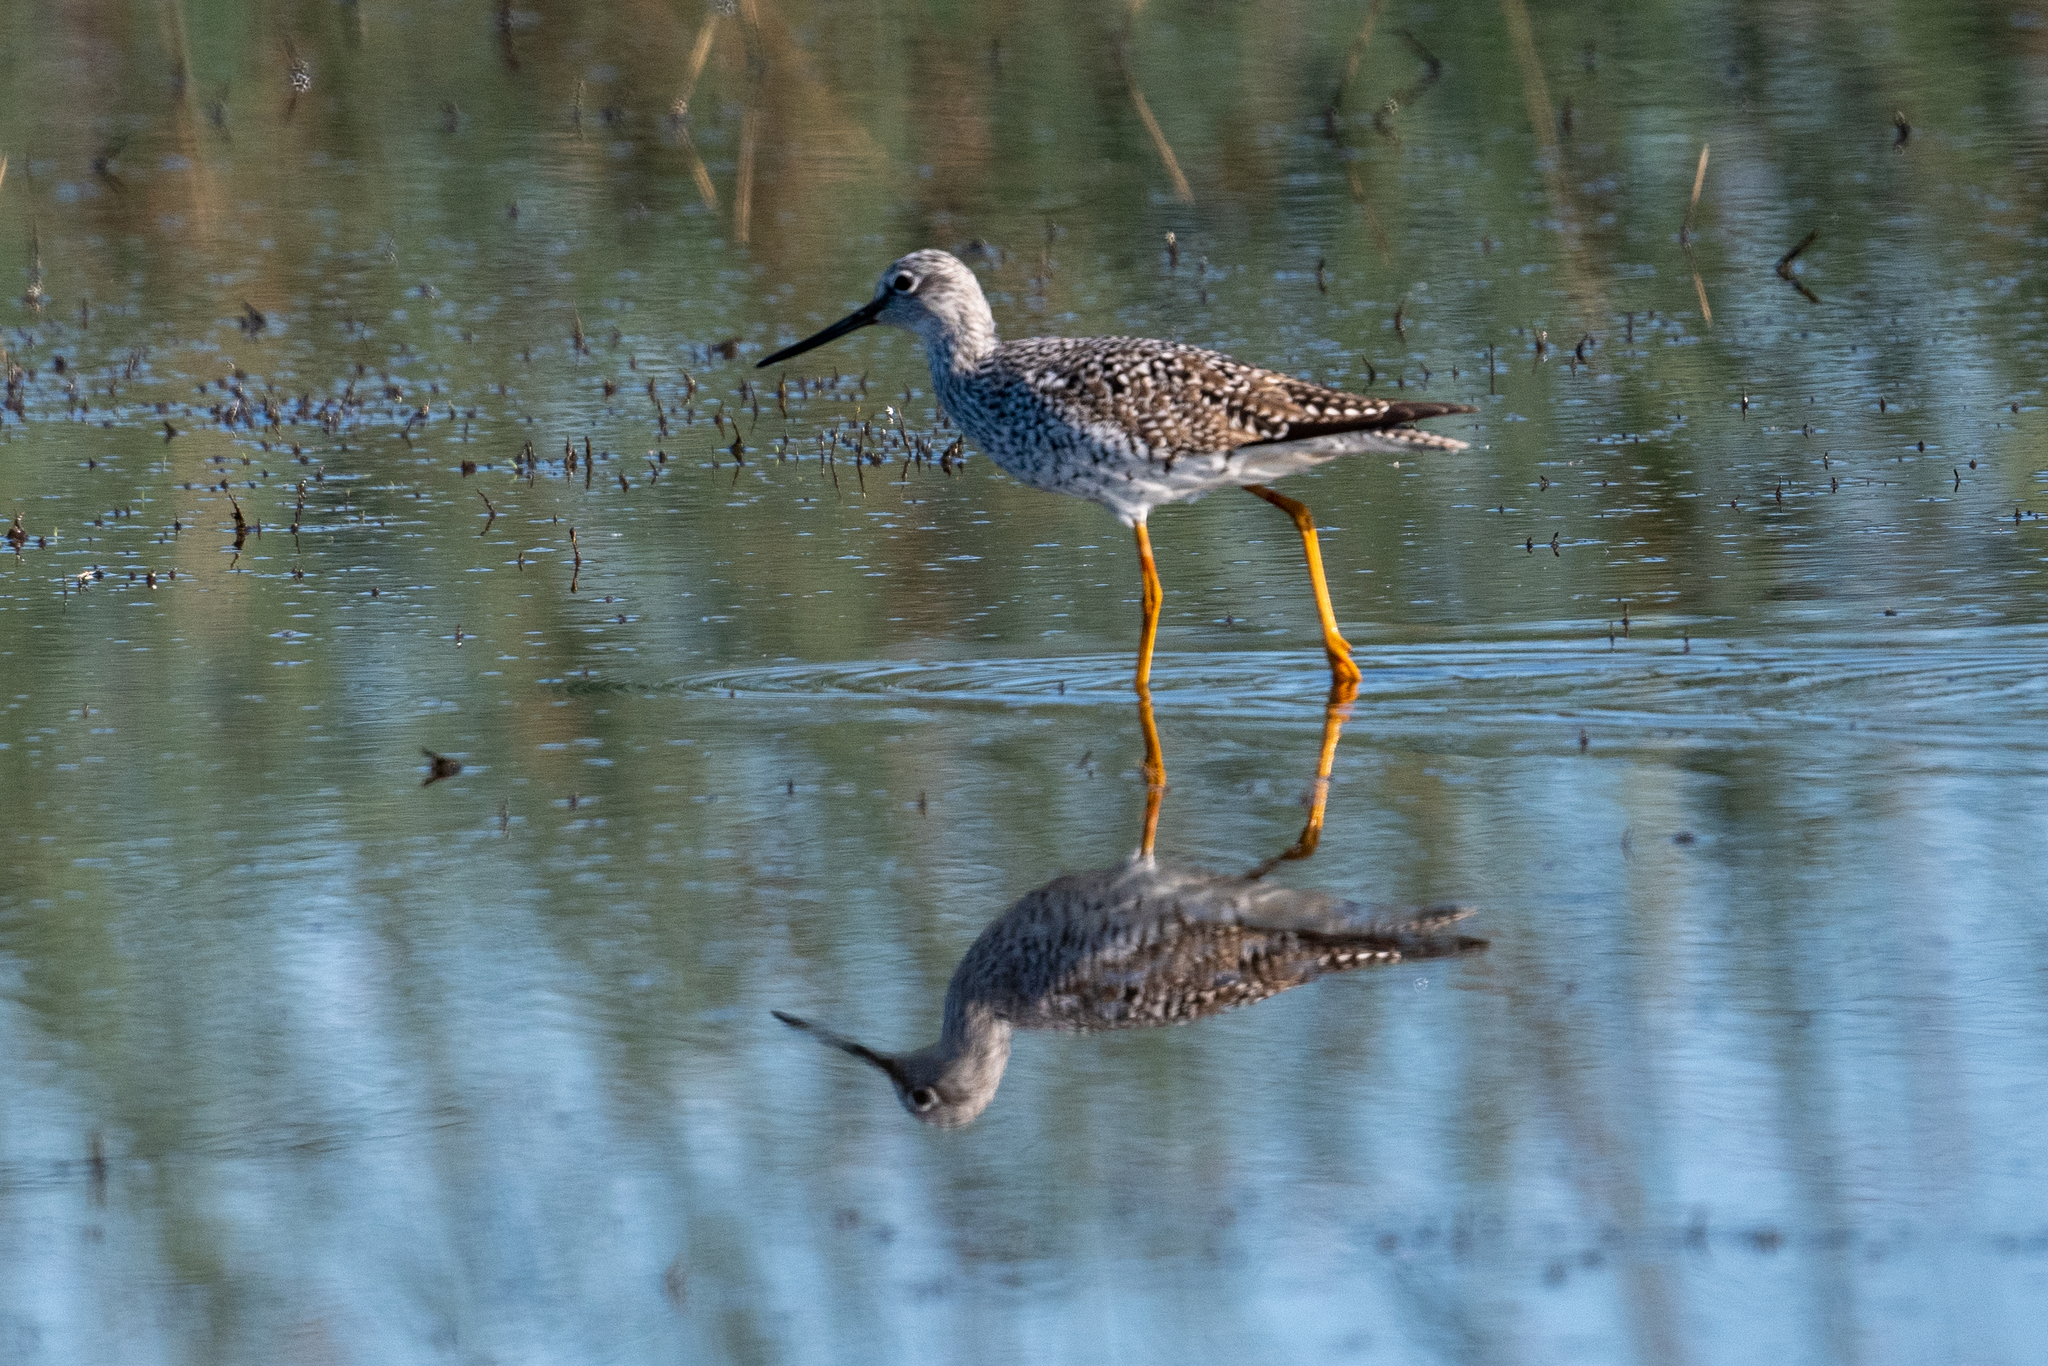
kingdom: Animalia
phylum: Chordata
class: Aves
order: Charadriiformes
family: Scolopacidae
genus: Tringa
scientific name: Tringa melanoleuca
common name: Greater yellowlegs
